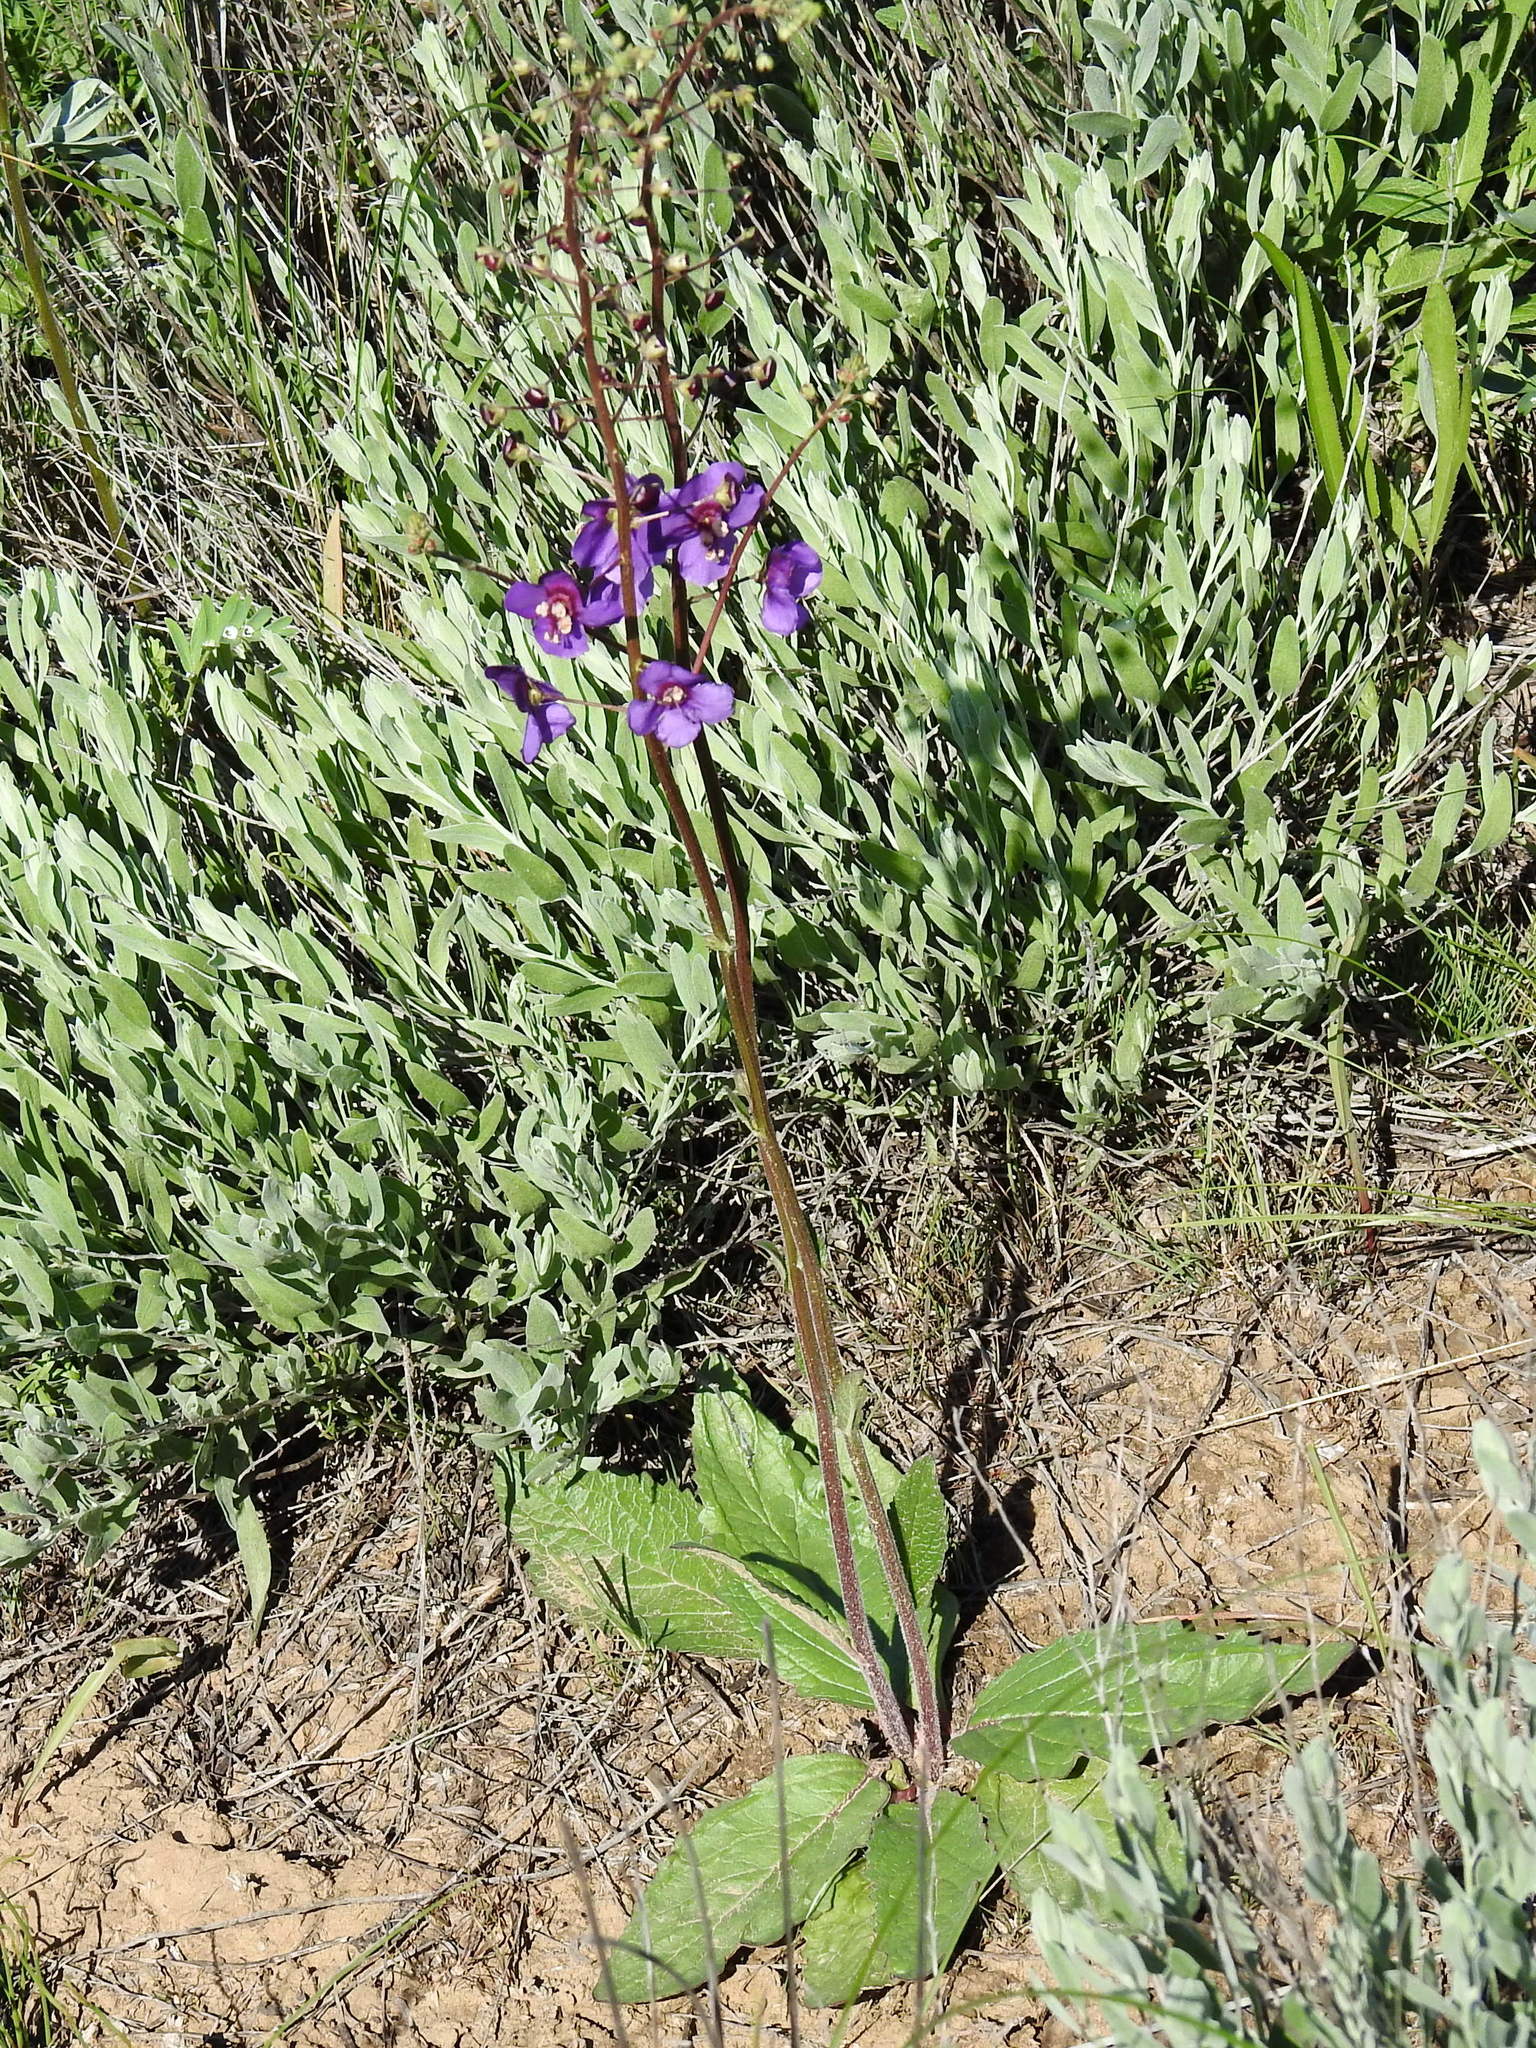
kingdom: Plantae
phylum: Tracheophyta
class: Magnoliopsida
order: Lamiales
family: Scrophulariaceae
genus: Verbascum
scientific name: Verbascum phoeniceum
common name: Purple mullein
